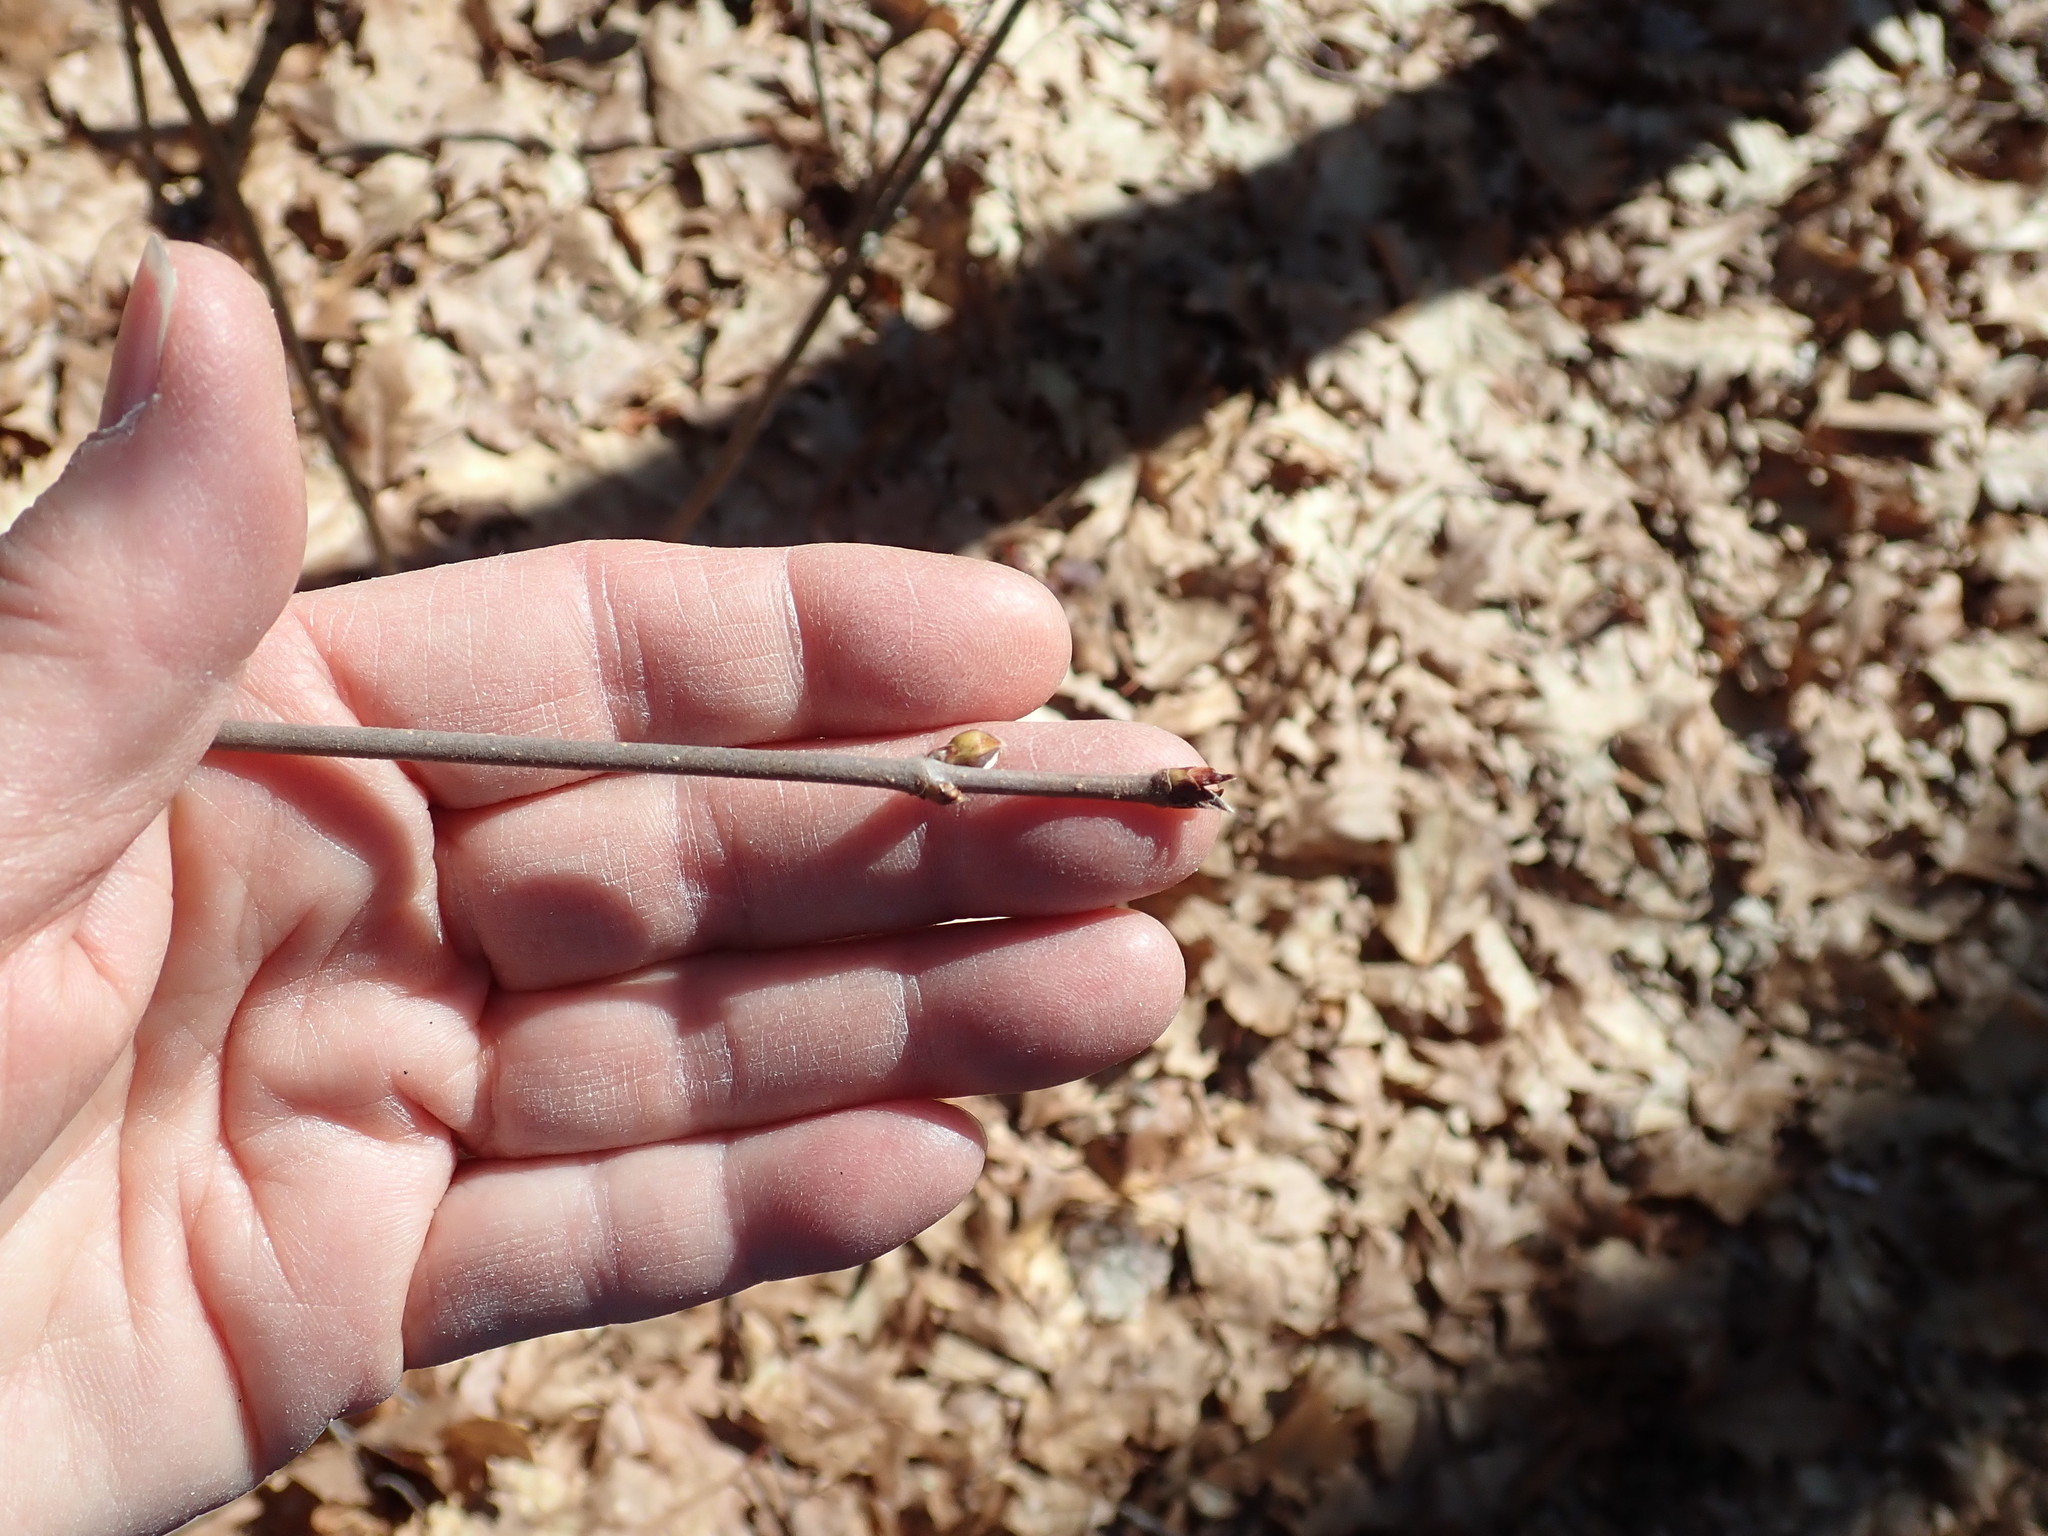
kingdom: Plantae
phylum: Tracheophyta
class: Magnoliopsida
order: Dipsacales
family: Viburnaceae
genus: Viburnum
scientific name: Viburnum acerifolium
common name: Dockmackie
